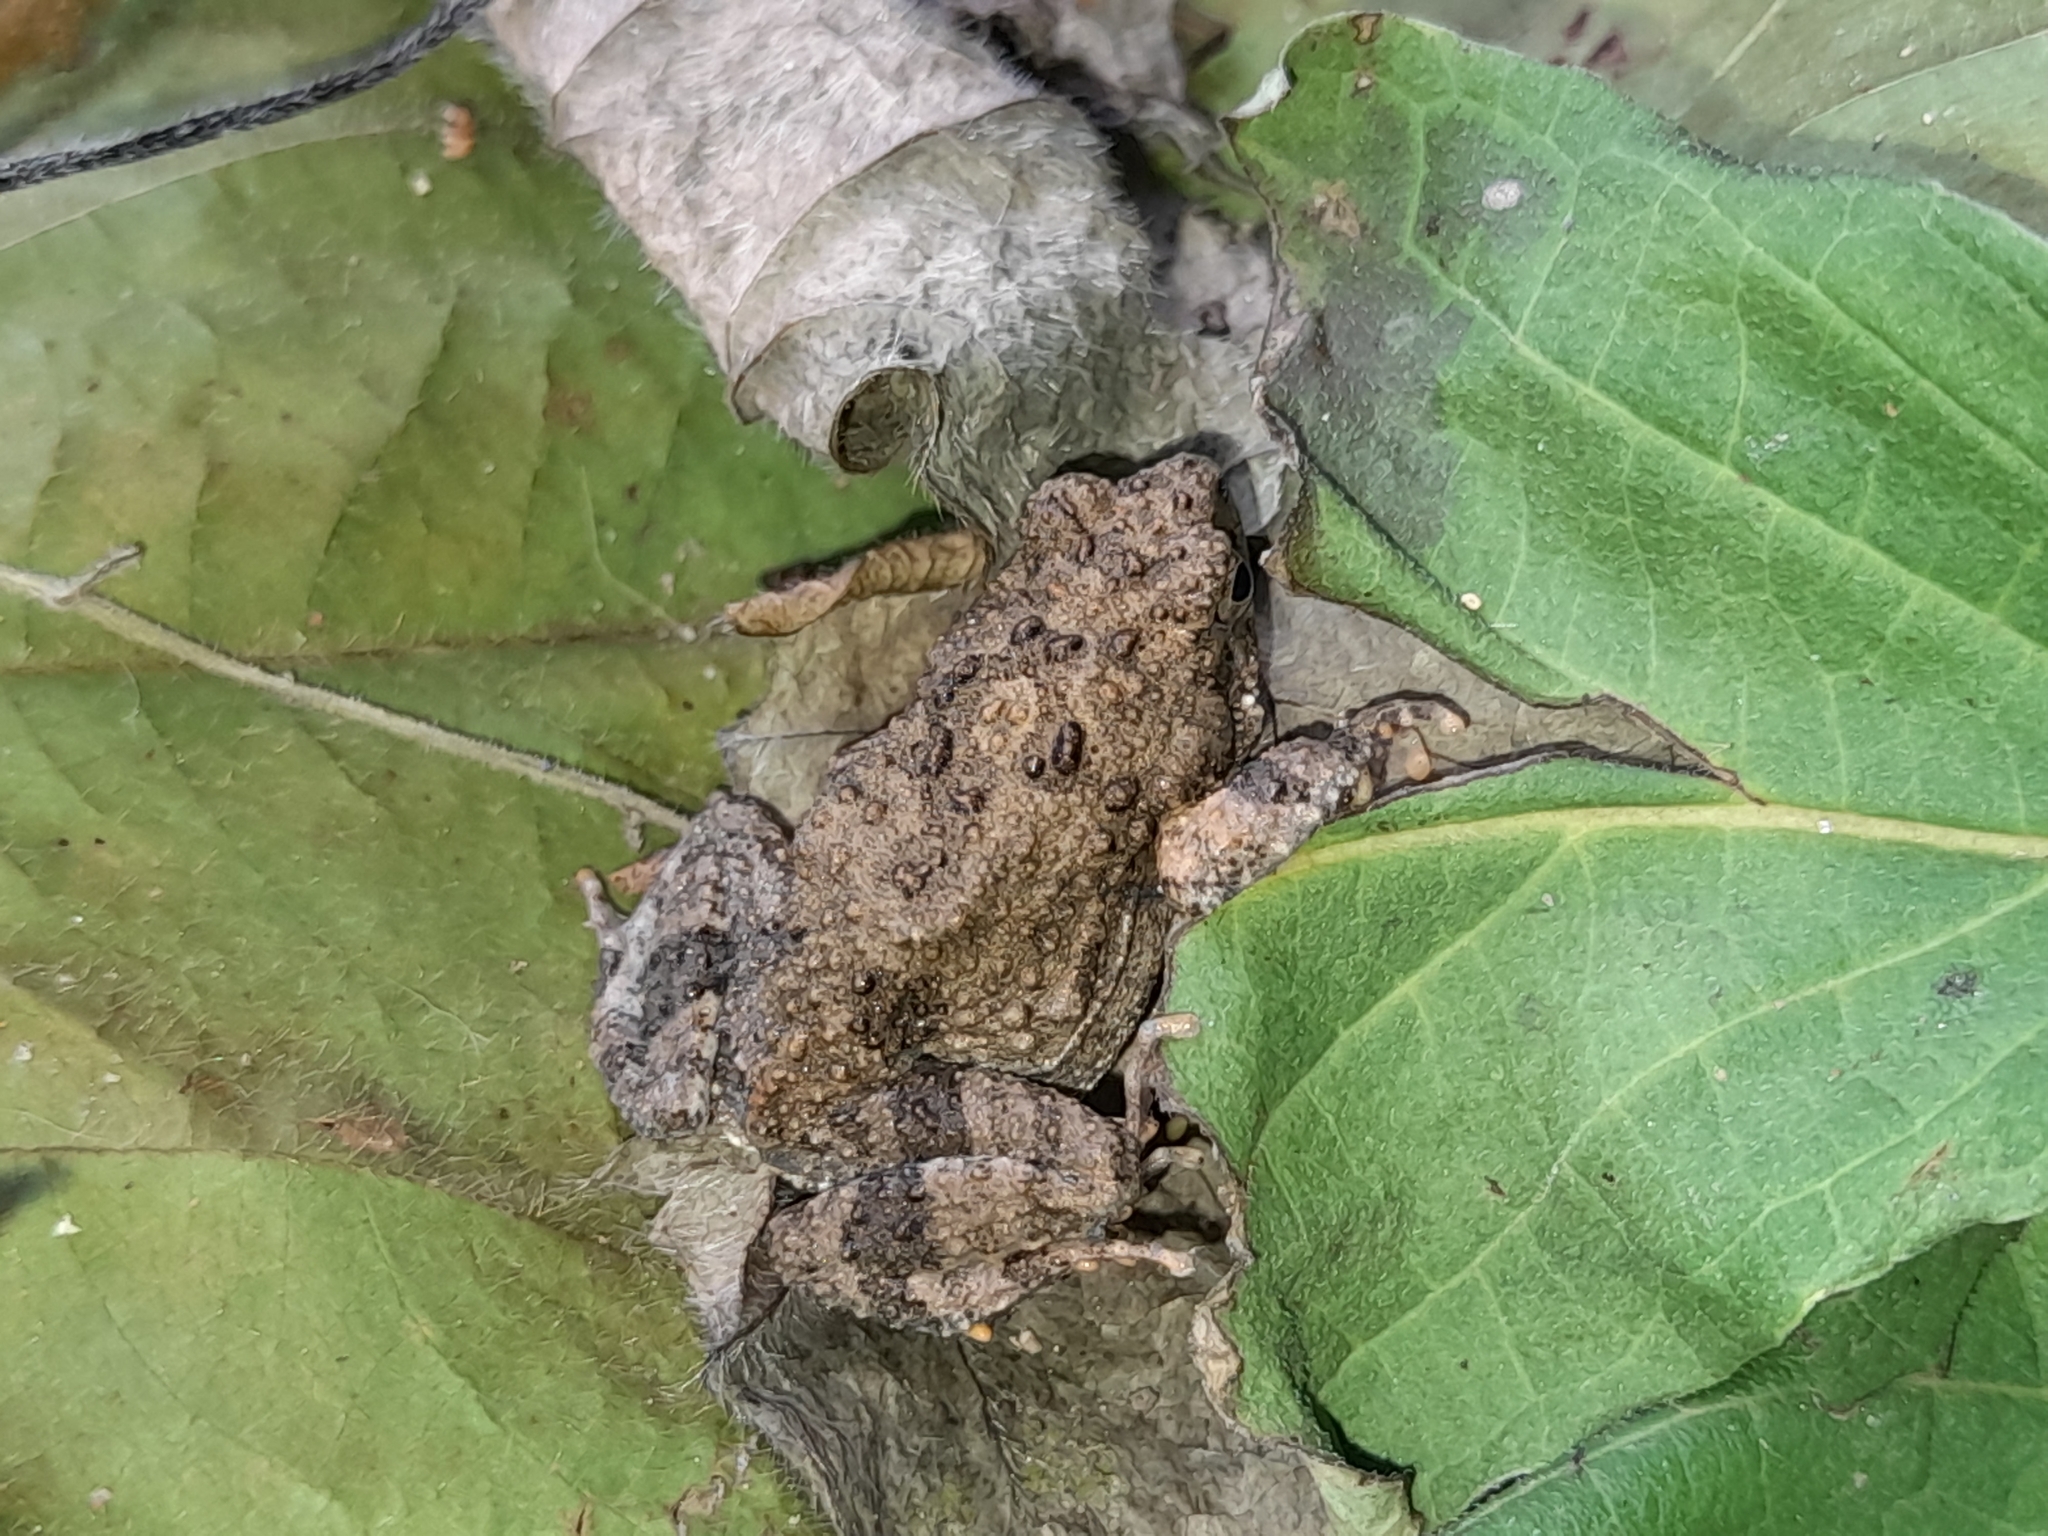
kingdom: Animalia
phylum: Chordata
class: Amphibia
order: Anura
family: Leptodactylidae
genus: Engystomops
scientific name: Engystomops pustulosus
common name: Tungara frog
